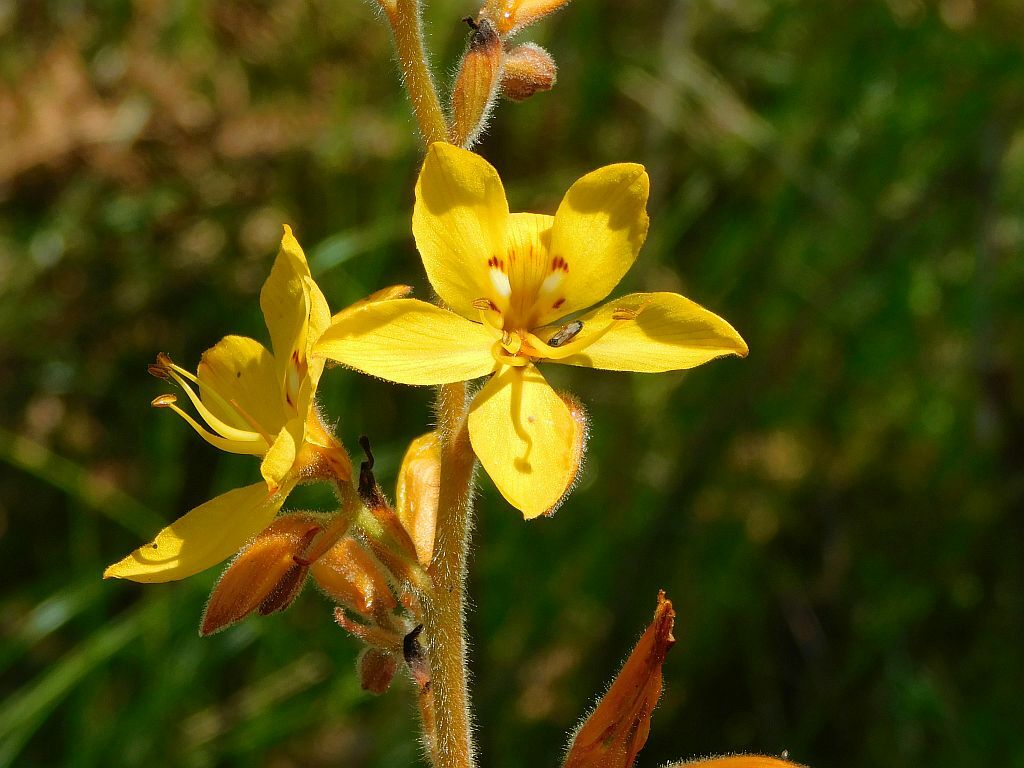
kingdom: Plantae
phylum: Tracheophyta
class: Liliopsida
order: Commelinales
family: Haemodoraceae
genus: Wachendorfia
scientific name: Wachendorfia thyrsiflora
